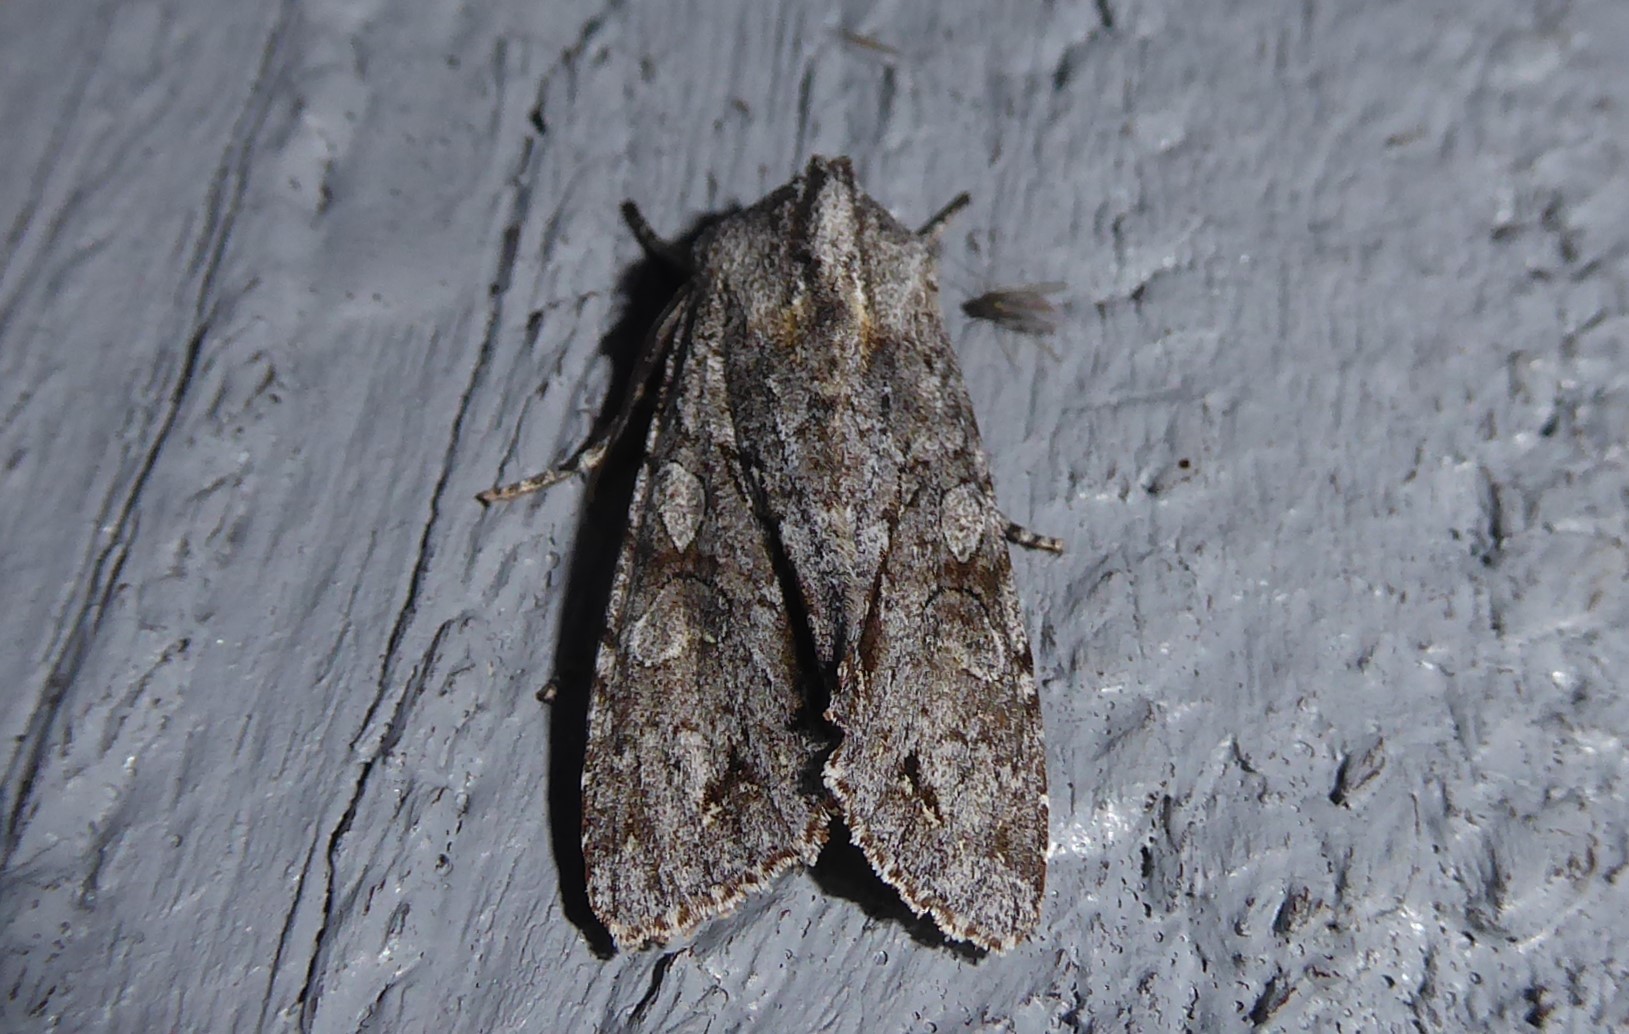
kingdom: Animalia
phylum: Arthropoda
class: Insecta
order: Lepidoptera
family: Noctuidae
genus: Ichneutica
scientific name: Ichneutica
